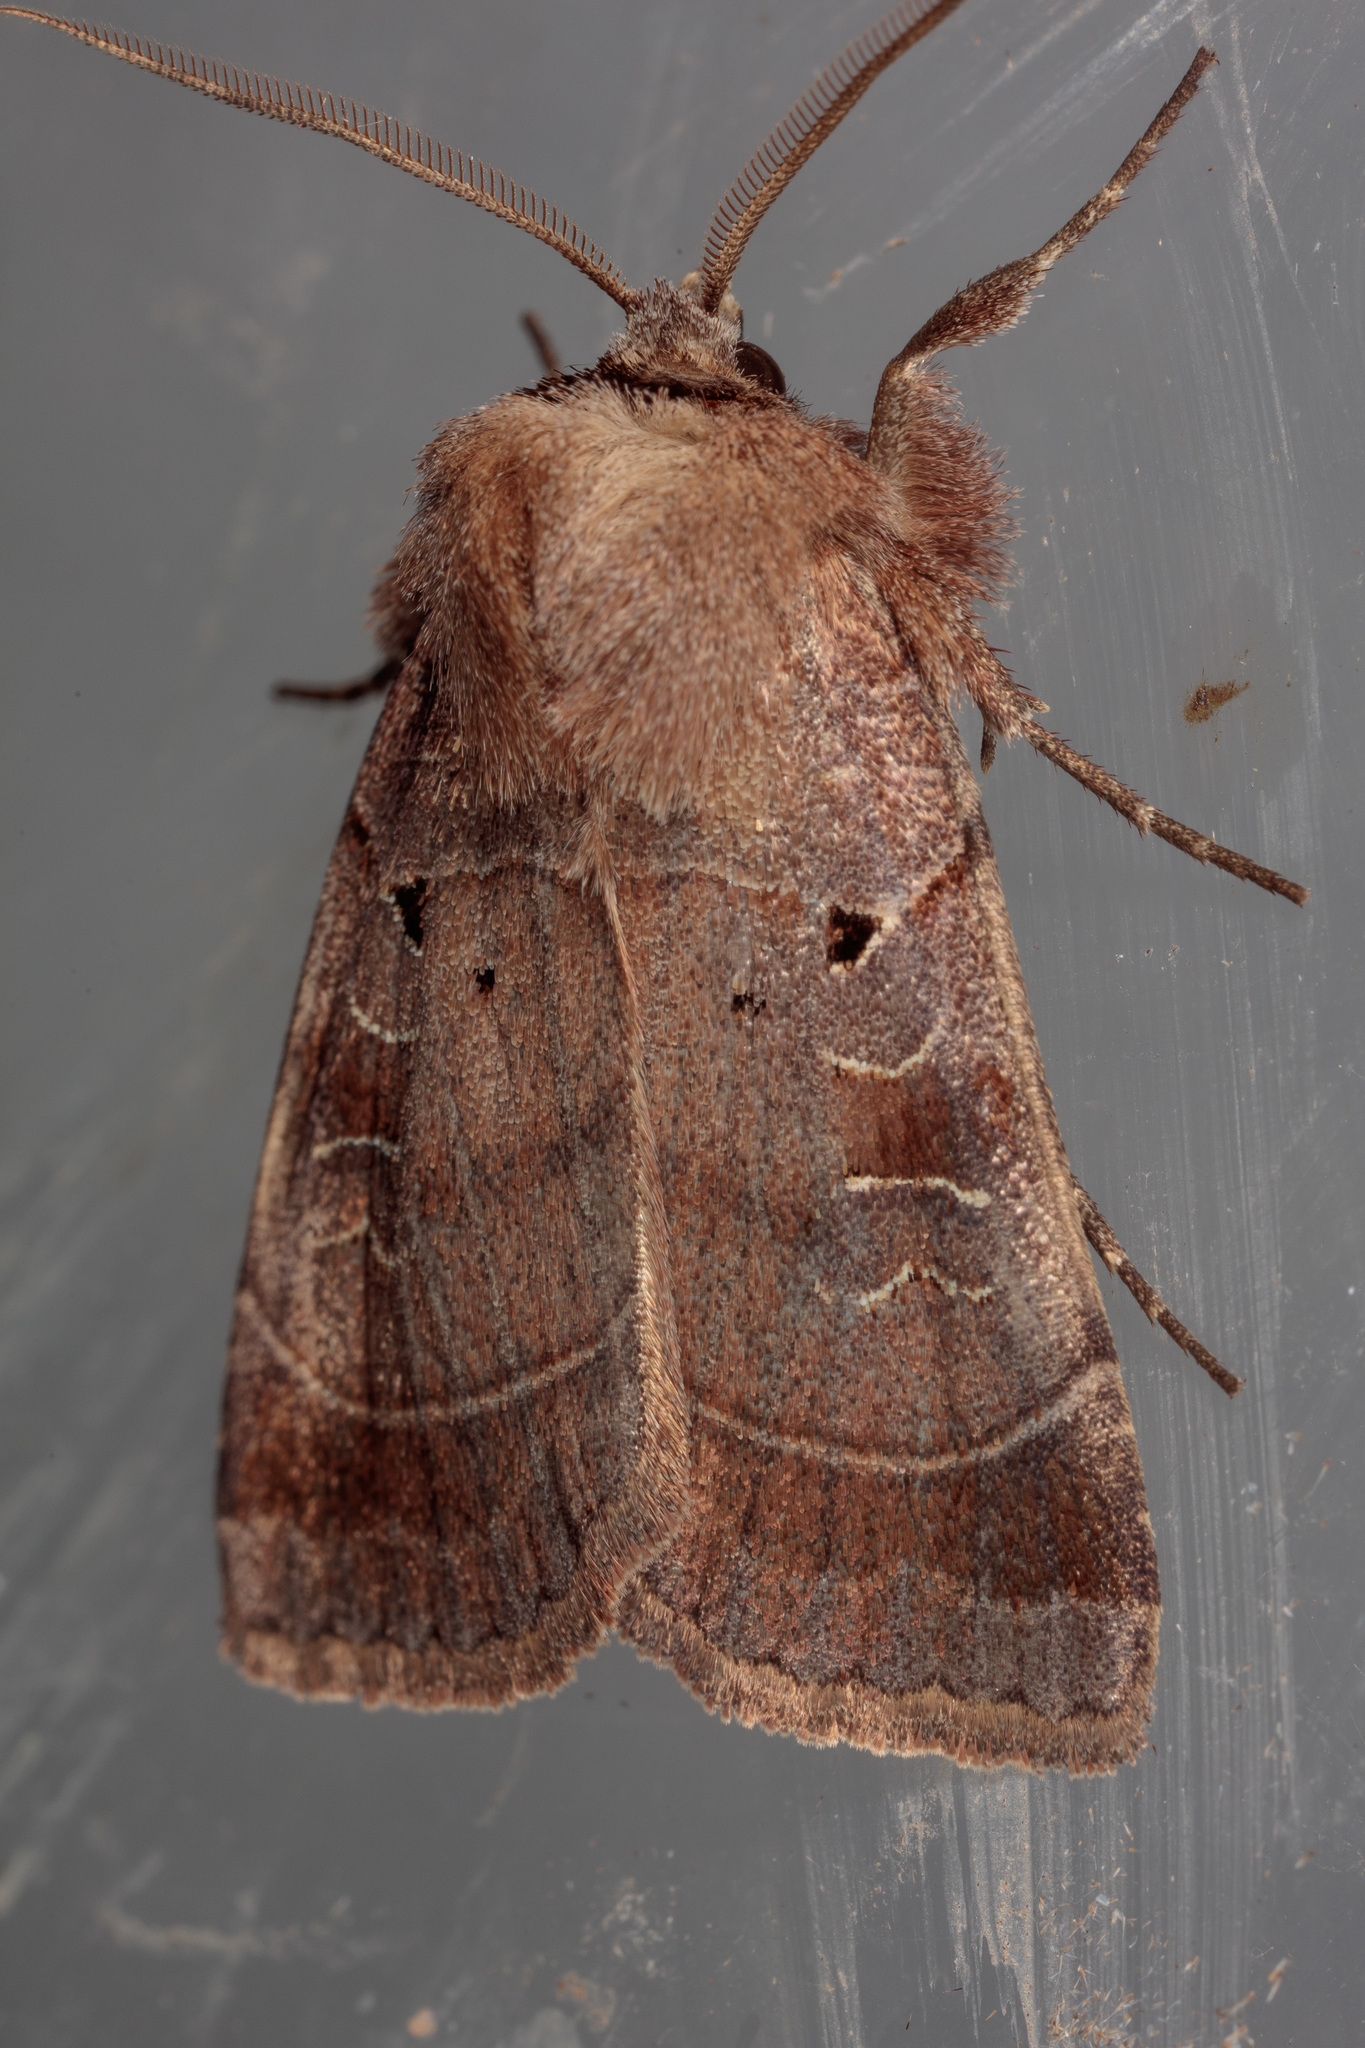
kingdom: Animalia
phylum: Arthropoda
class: Insecta
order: Lepidoptera
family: Noctuidae
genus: Agnorisma
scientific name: Agnorisma badinodis
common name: Pale-banded dart
